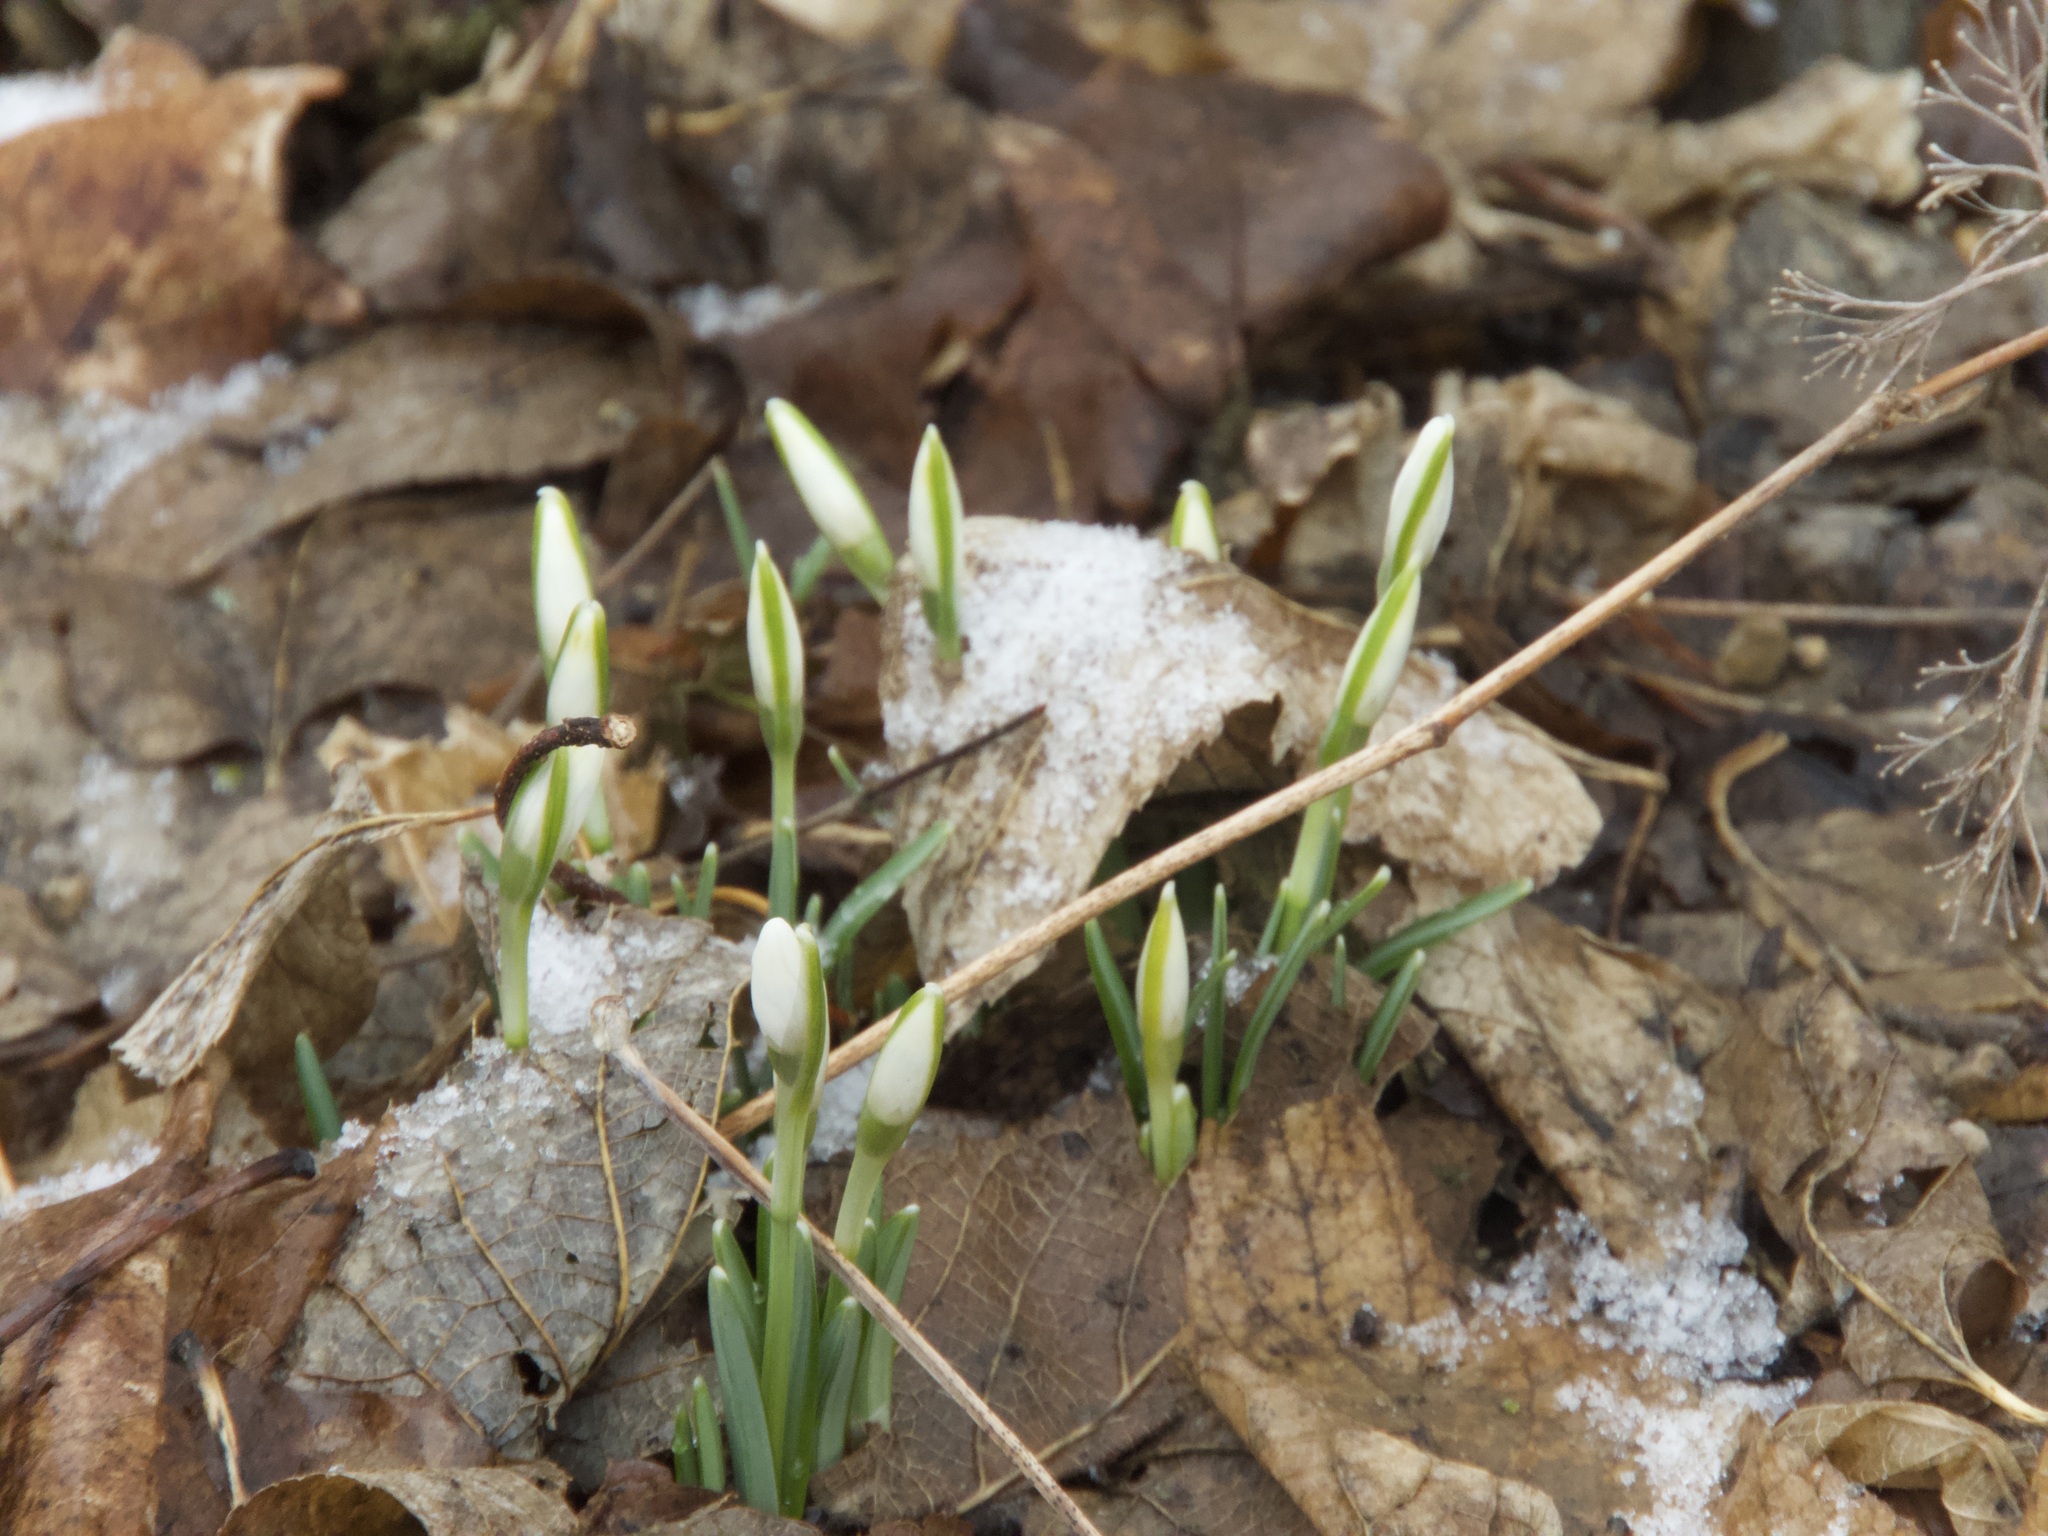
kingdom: Plantae
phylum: Tracheophyta
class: Liliopsida
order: Asparagales
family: Amaryllidaceae
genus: Galanthus
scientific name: Galanthus nivalis
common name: Snowdrop
